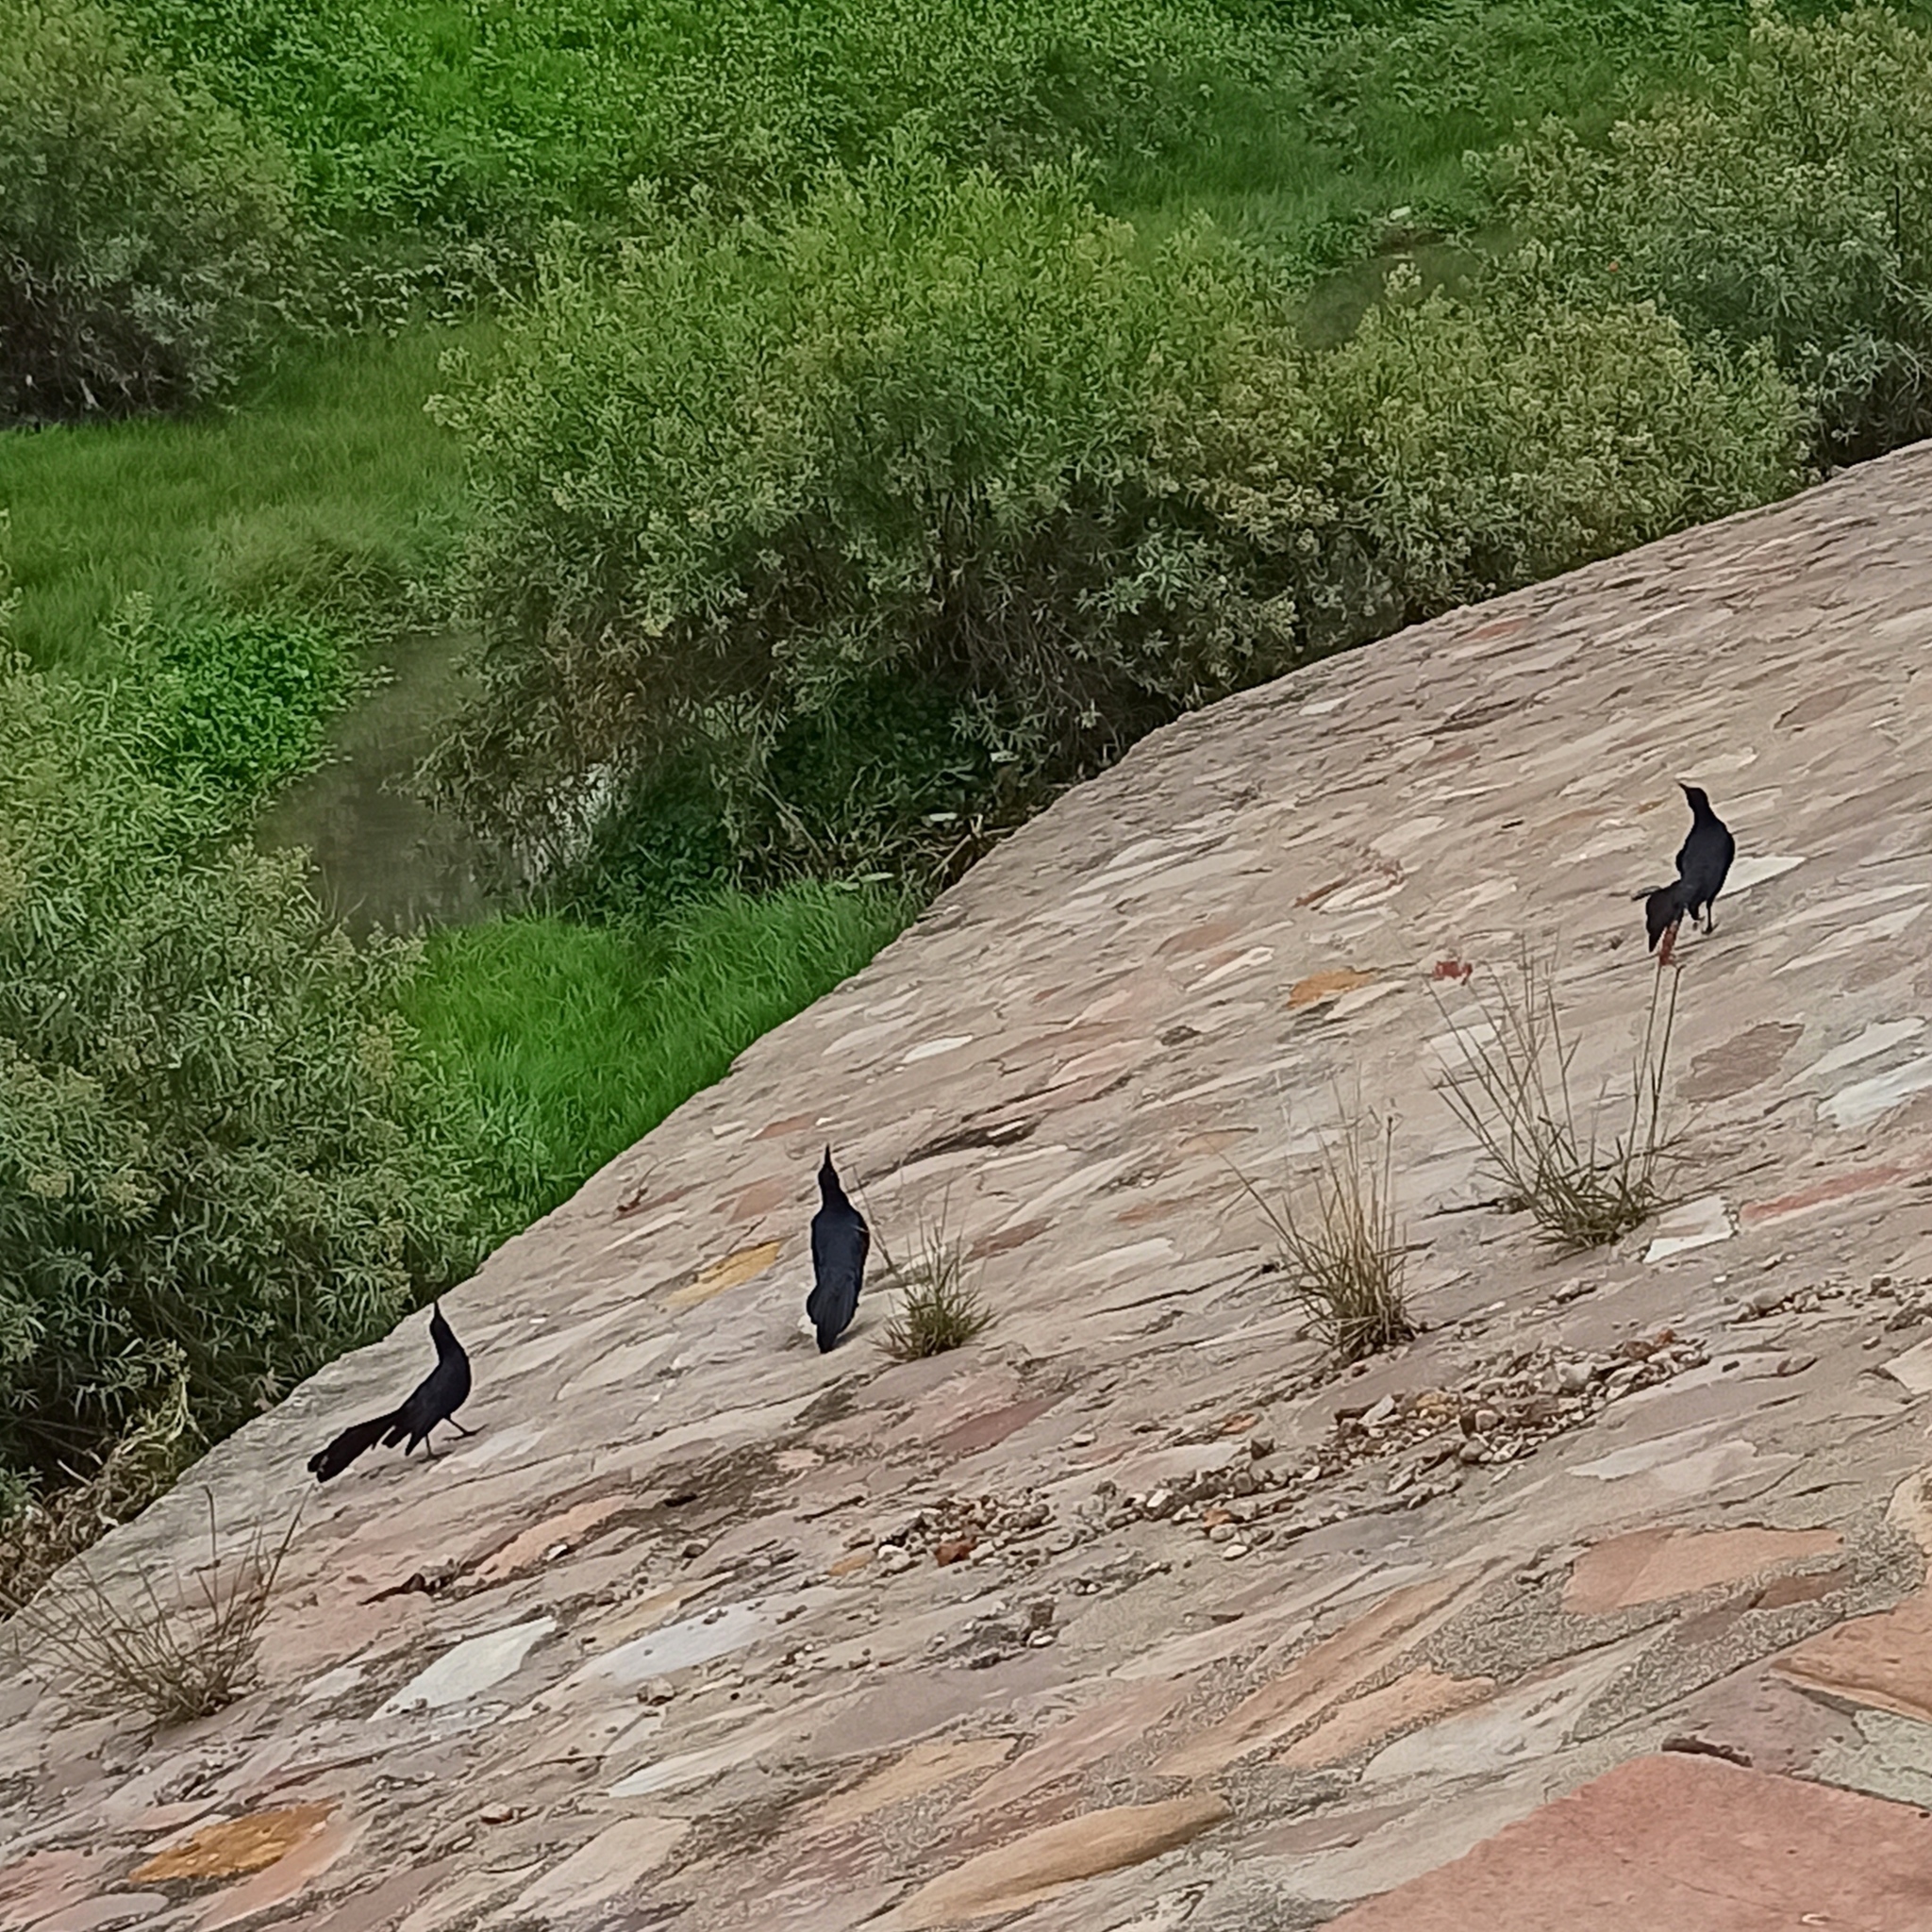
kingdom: Animalia
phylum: Chordata
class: Aves
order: Passeriformes
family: Icteridae
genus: Quiscalus
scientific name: Quiscalus mexicanus
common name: Great-tailed grackle
